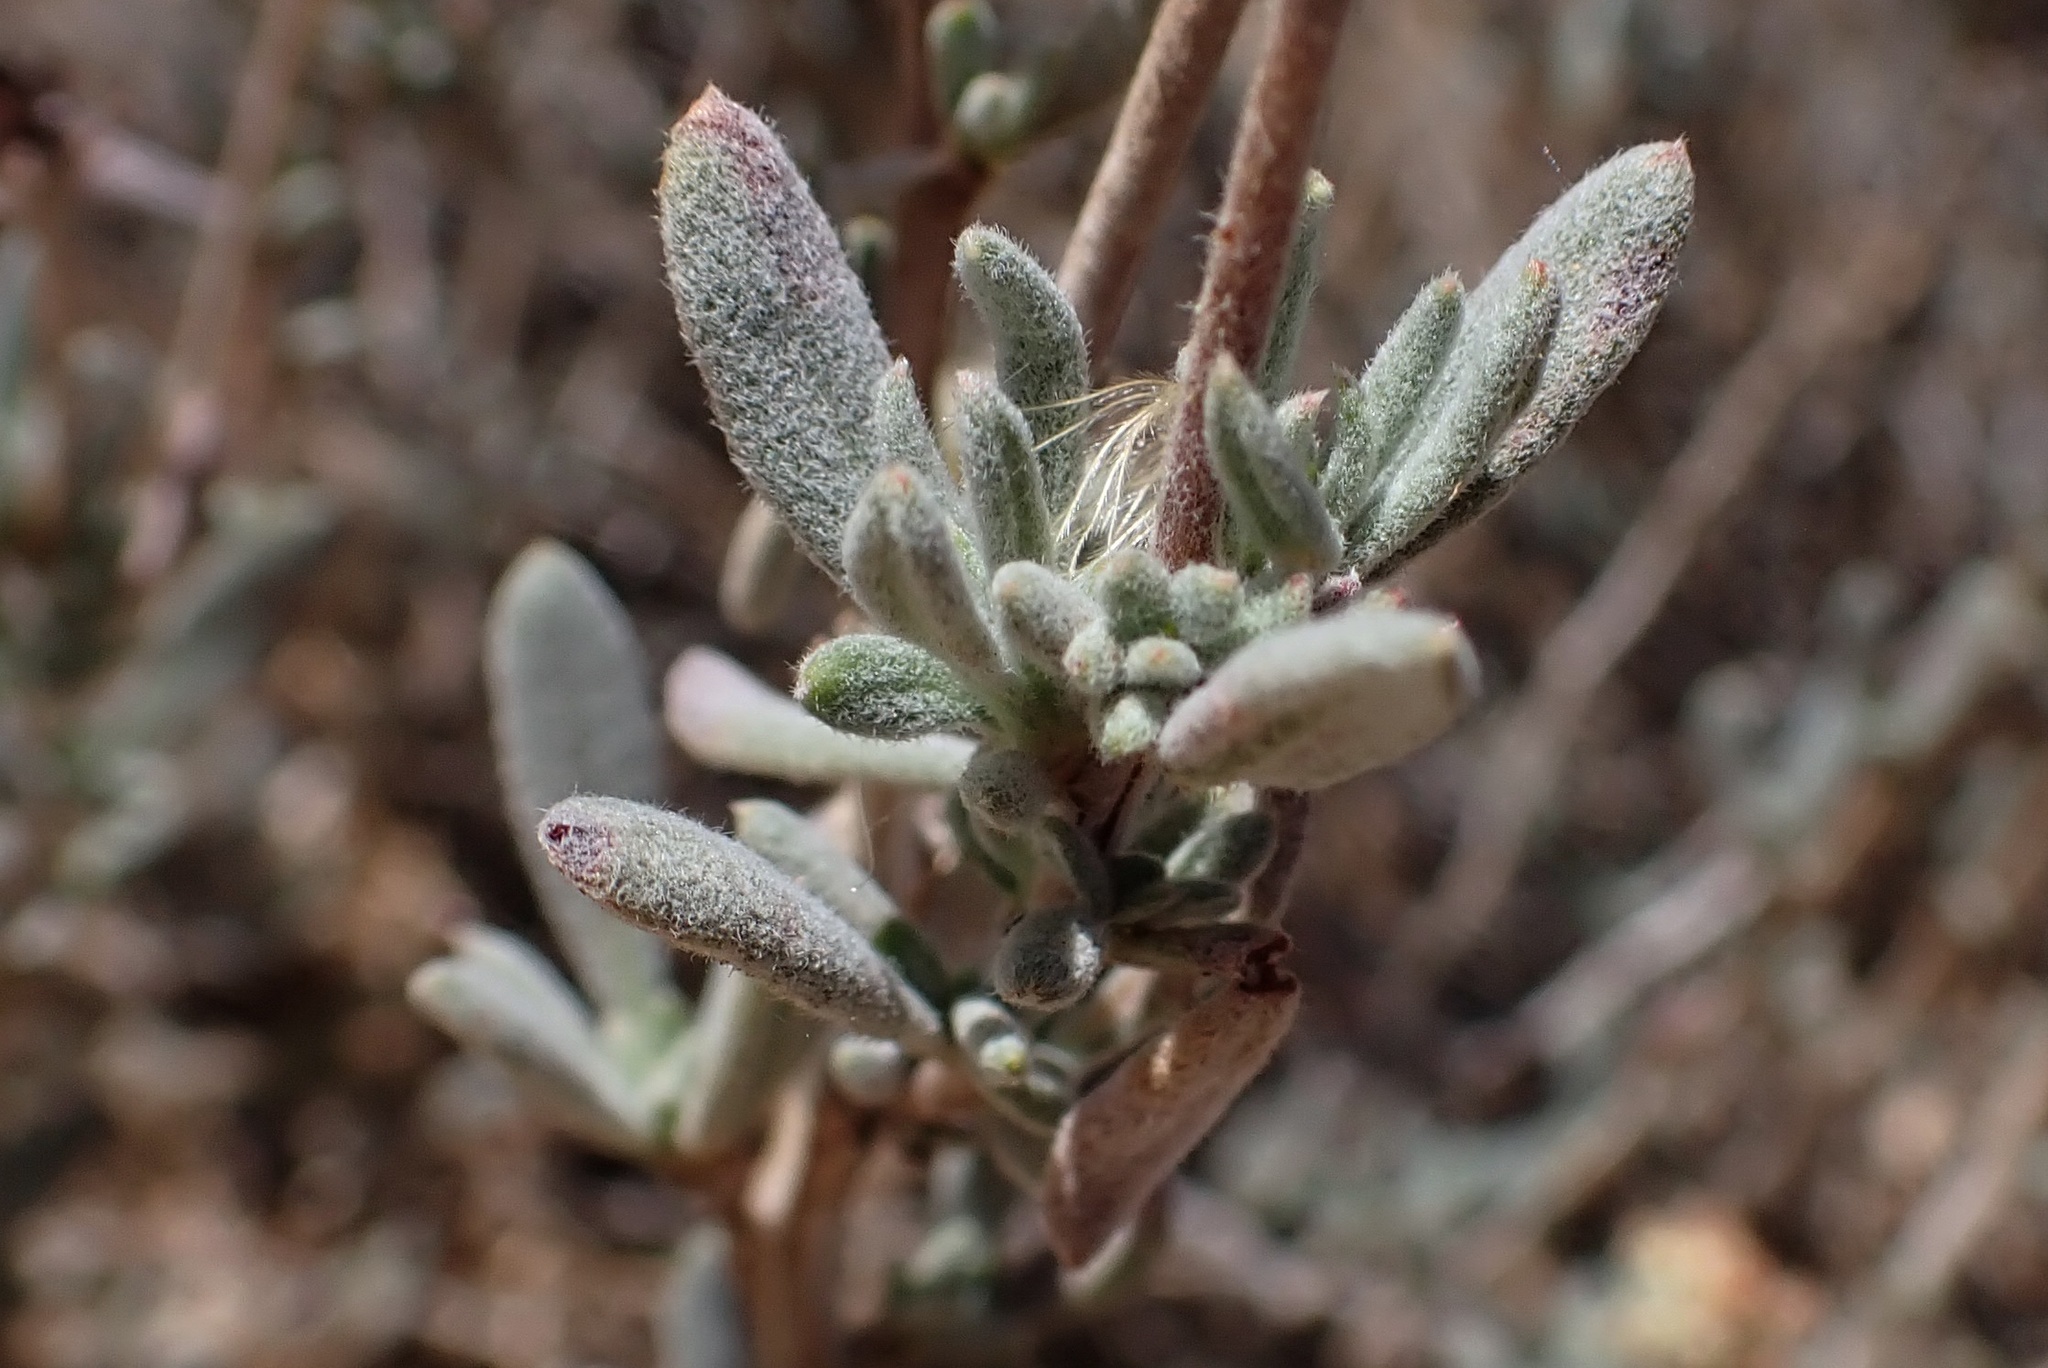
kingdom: Plantae
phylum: Tracheophyta
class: Magnoliopsida
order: Caryophyllales
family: Polygonaceae
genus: Eriogonum
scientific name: Eriogonum fasciculatum
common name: California wild buckwheat
